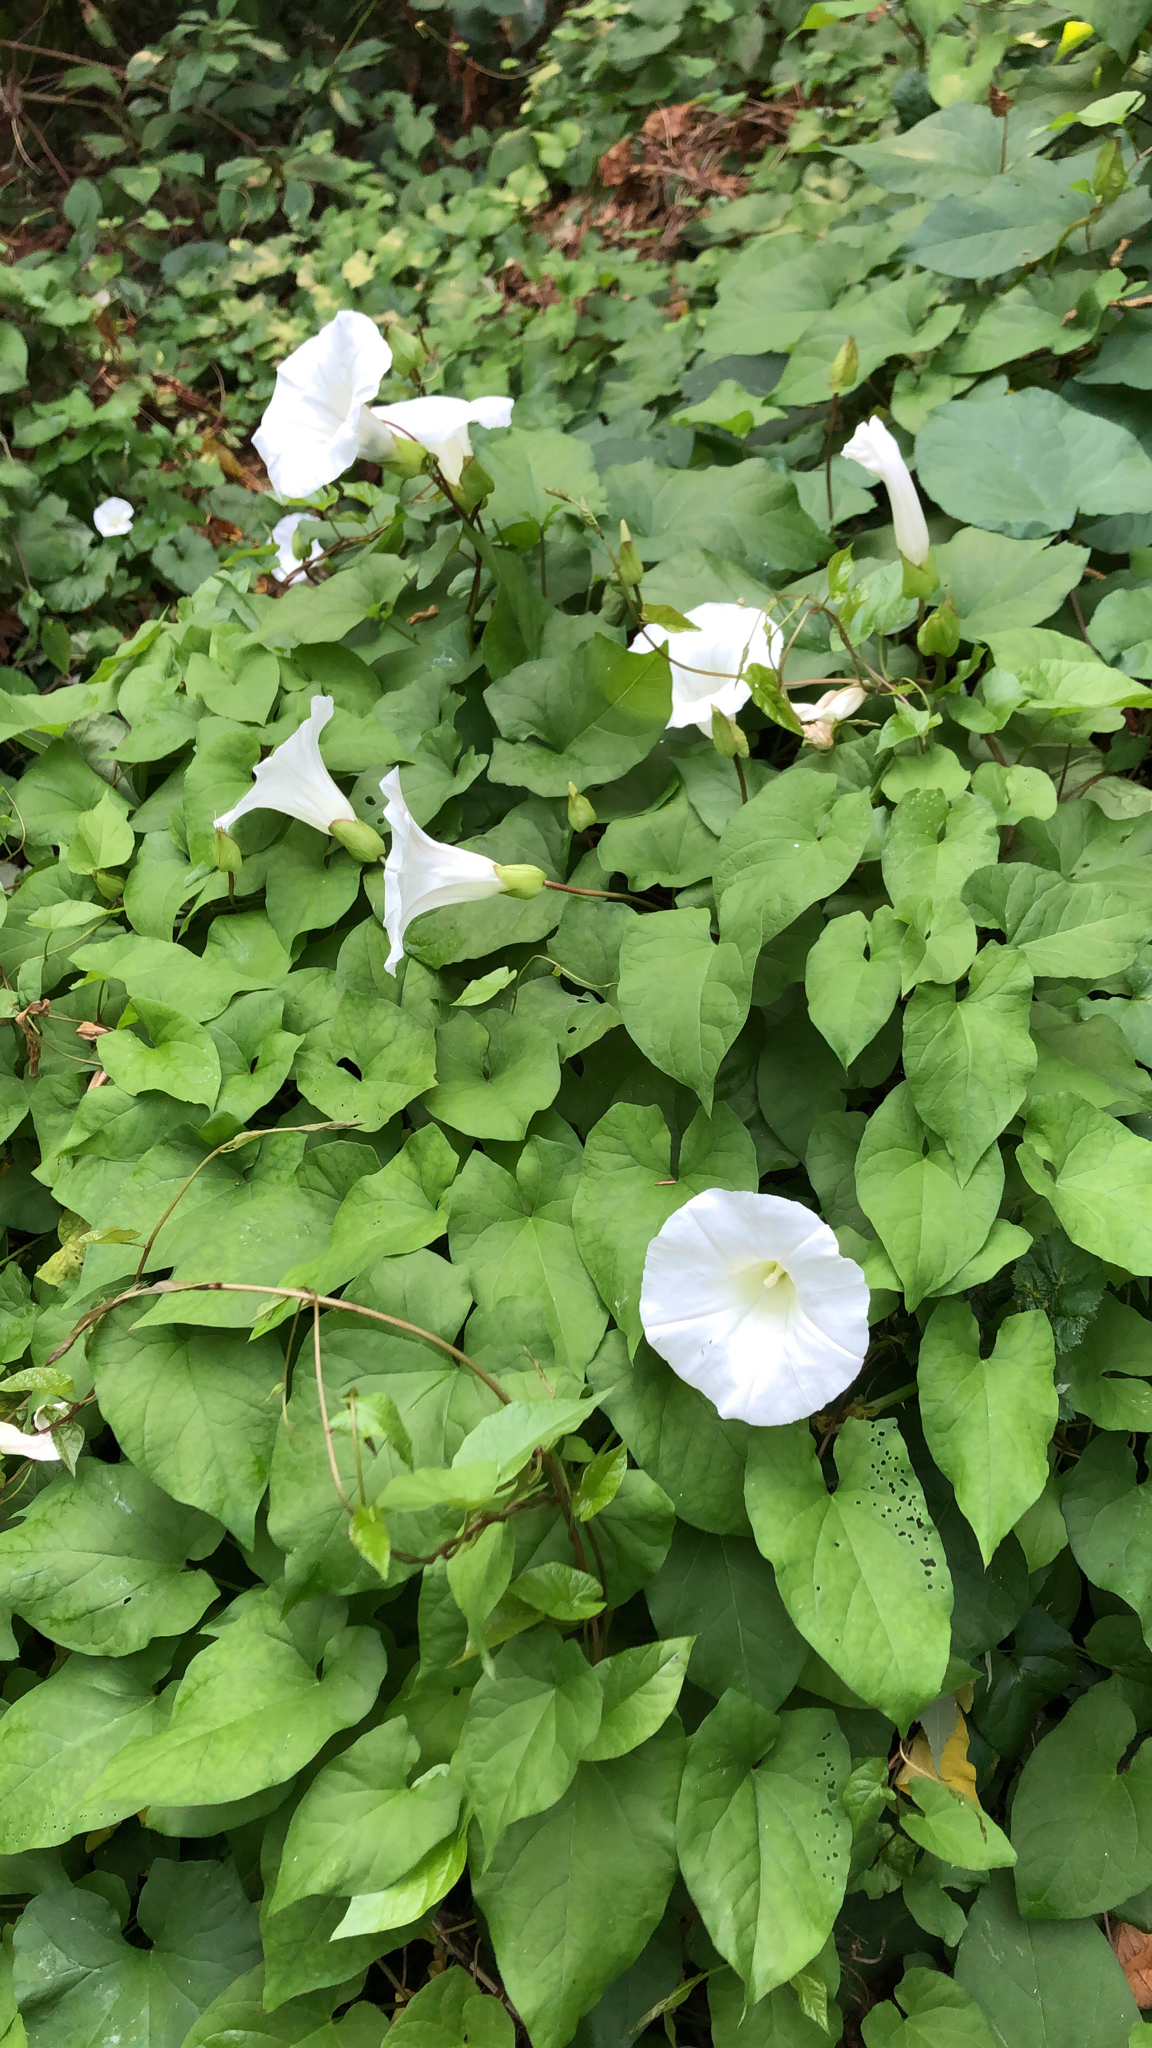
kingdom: Plantae
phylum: Tracheophyta
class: Magnoliopsida
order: Solanales
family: Convolvulaceae
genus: Calystegia
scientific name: Calystegia silvatica
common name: Large bindweed
